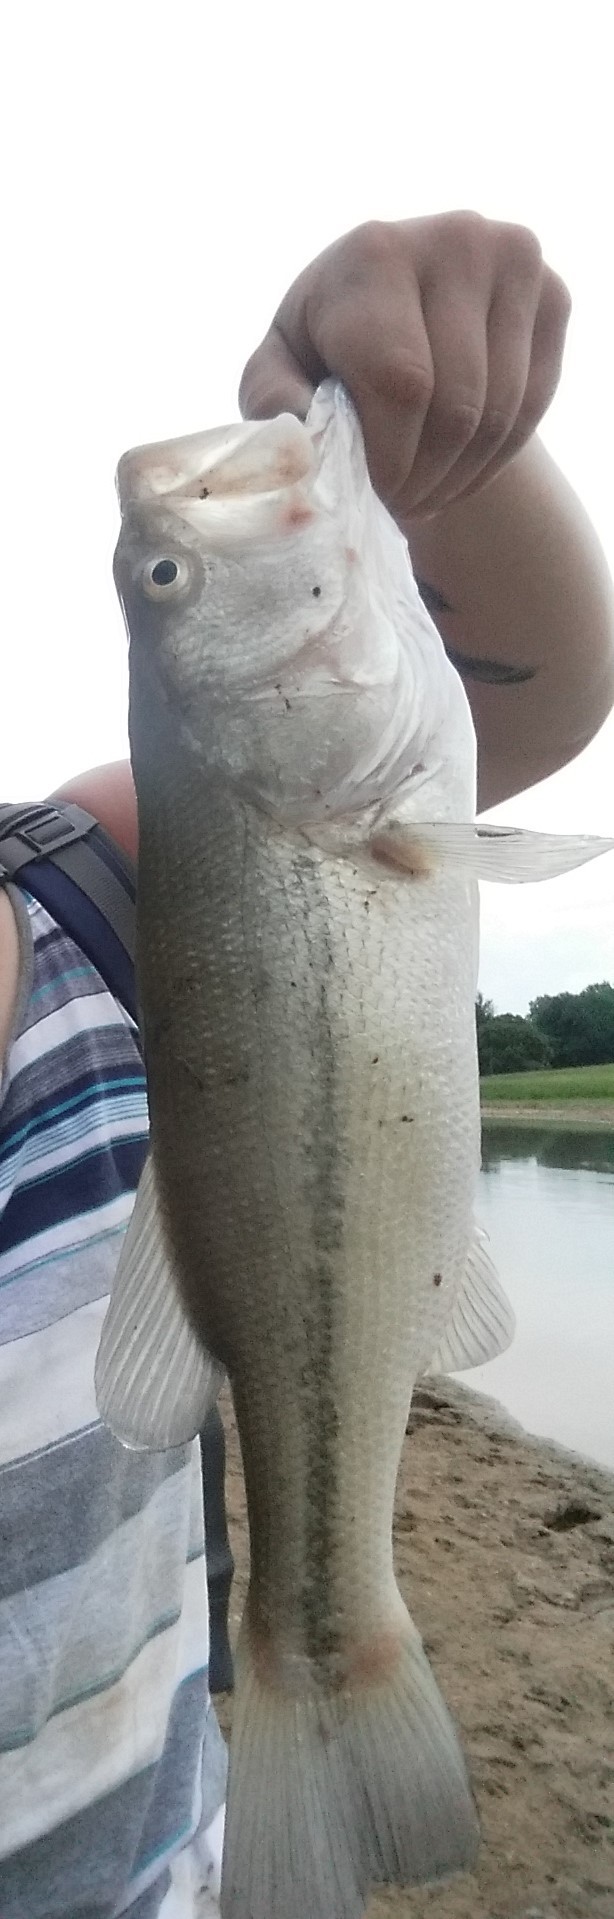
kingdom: Animalia
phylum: Chordata
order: Perciformes
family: Centrarchidae
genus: Micropterus
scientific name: Micropterus
